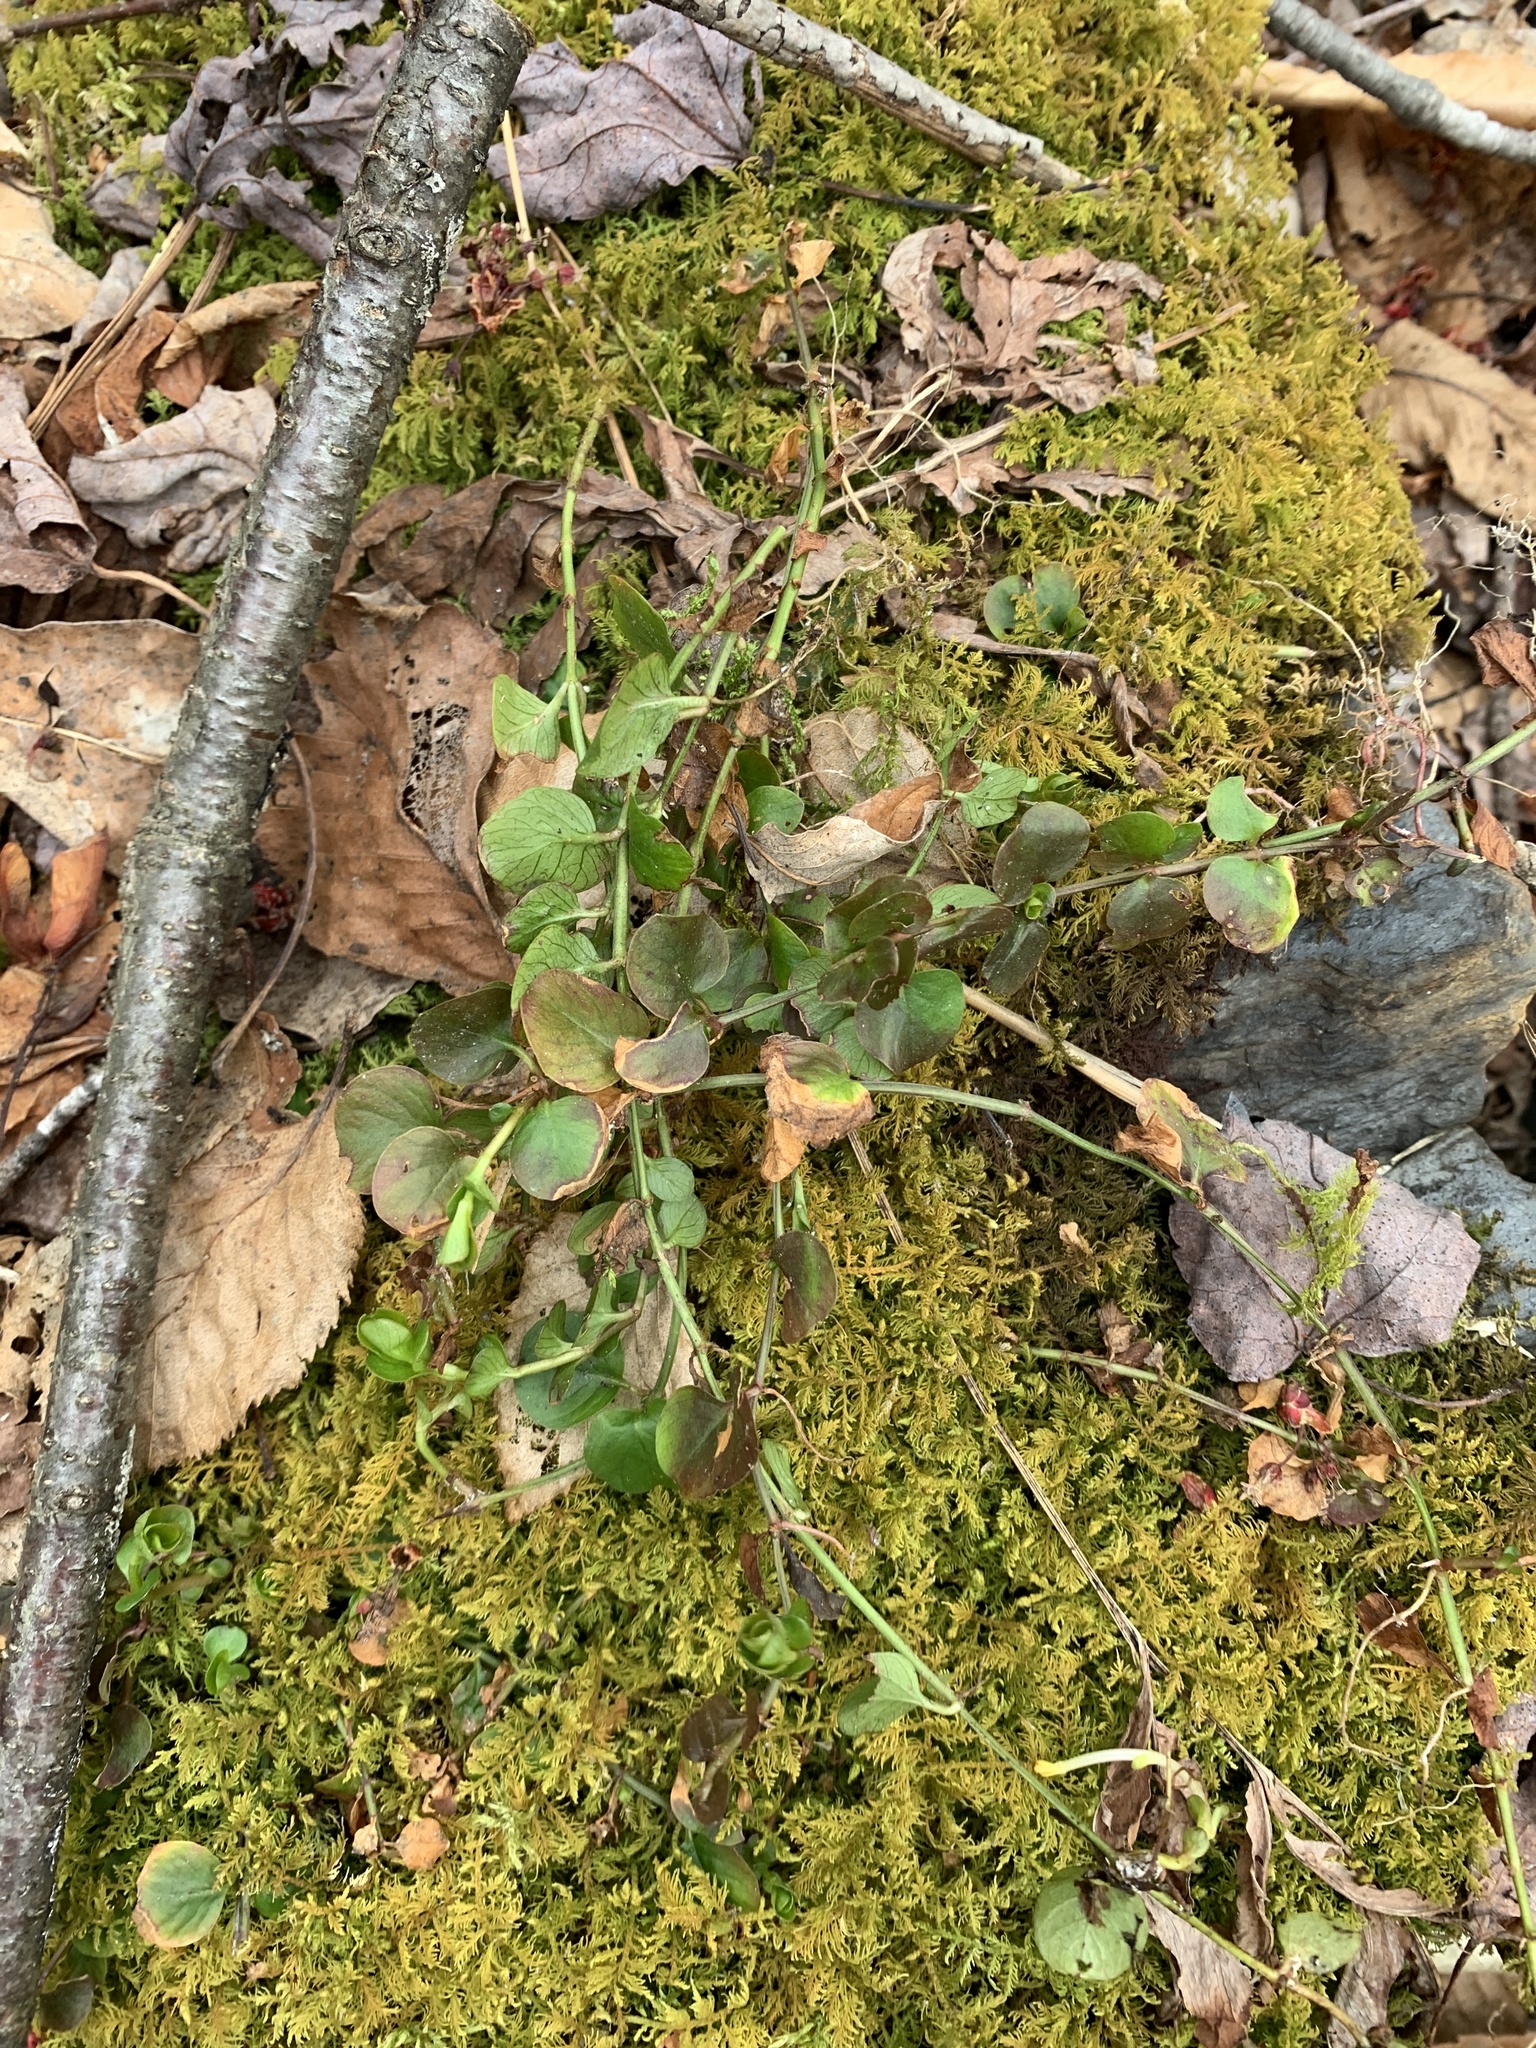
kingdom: Plantae
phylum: Tracheophyta
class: Magnoliopsida
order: Ericales
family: Primulaceae
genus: Lysimachia
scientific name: Lysimachia nummularia
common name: Moneywort
